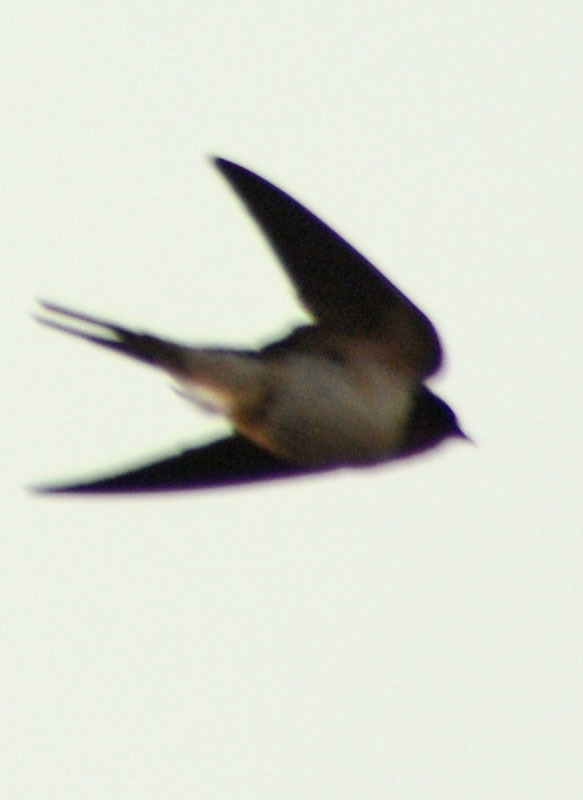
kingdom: Animalia
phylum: Chordata
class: Aves
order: Passeriformes
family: Hirundinidae
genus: Hirundo
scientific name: Hirundo rustica
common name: Barn swallow
